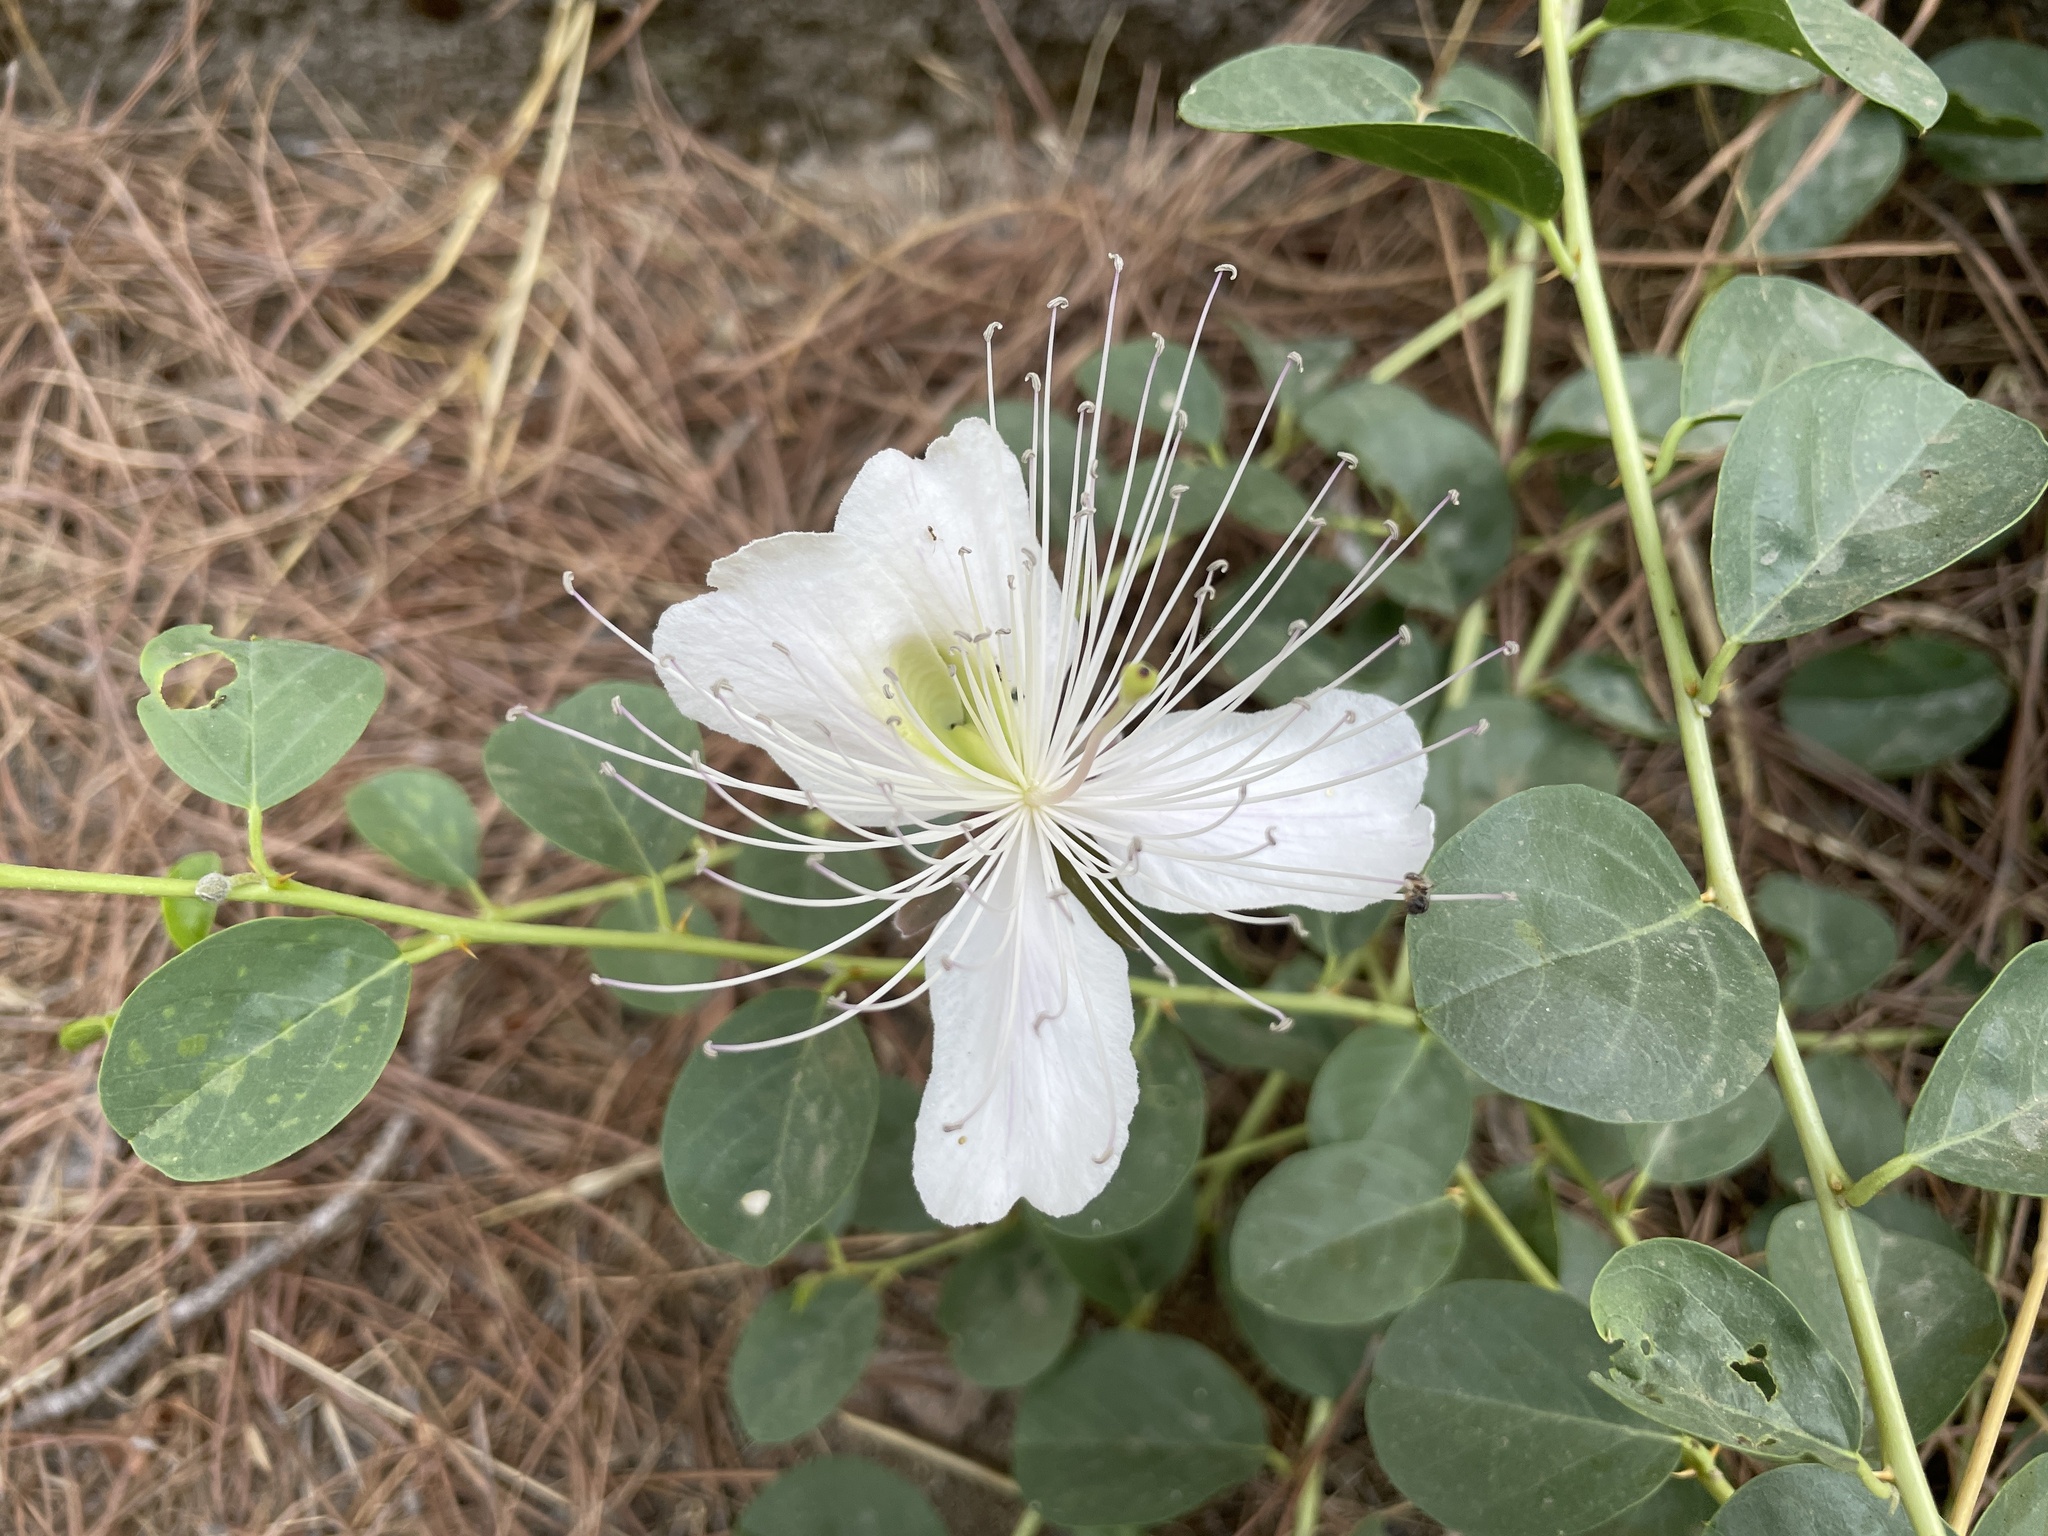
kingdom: Plantae
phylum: Tracheophyta
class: Magnoliopsida
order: Brassicales
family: Capparaceae
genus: Capparis
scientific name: Capparis spinosa
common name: Caper
